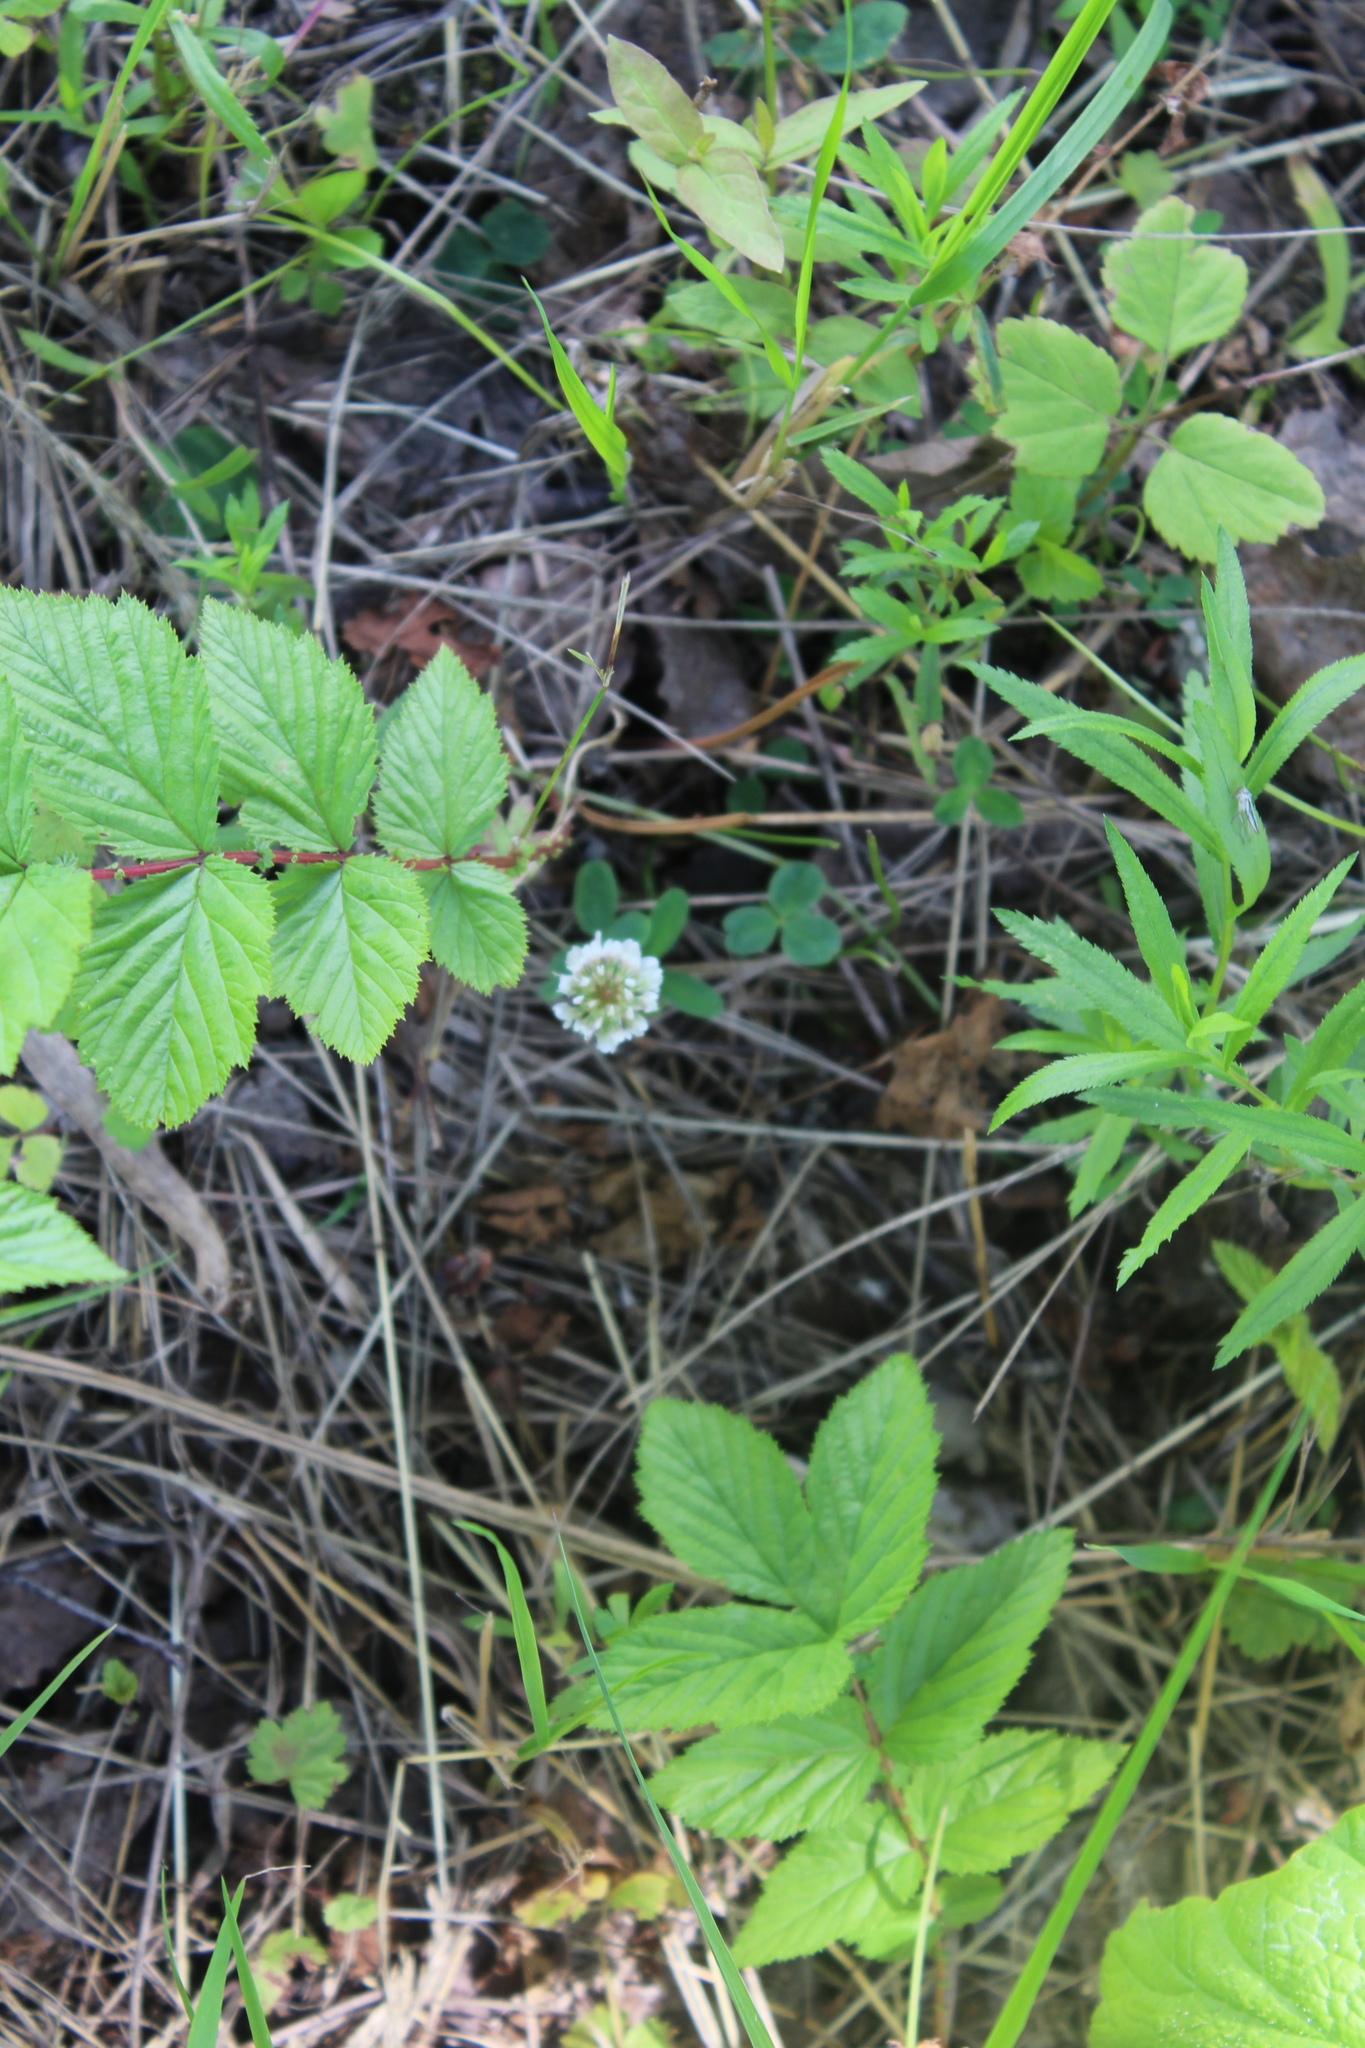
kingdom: Plantae
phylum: Tracheophyta
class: Magnoliopsida
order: Fabales
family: Fabaceae
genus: Trifolium
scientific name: Trifolium repens
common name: White clover
